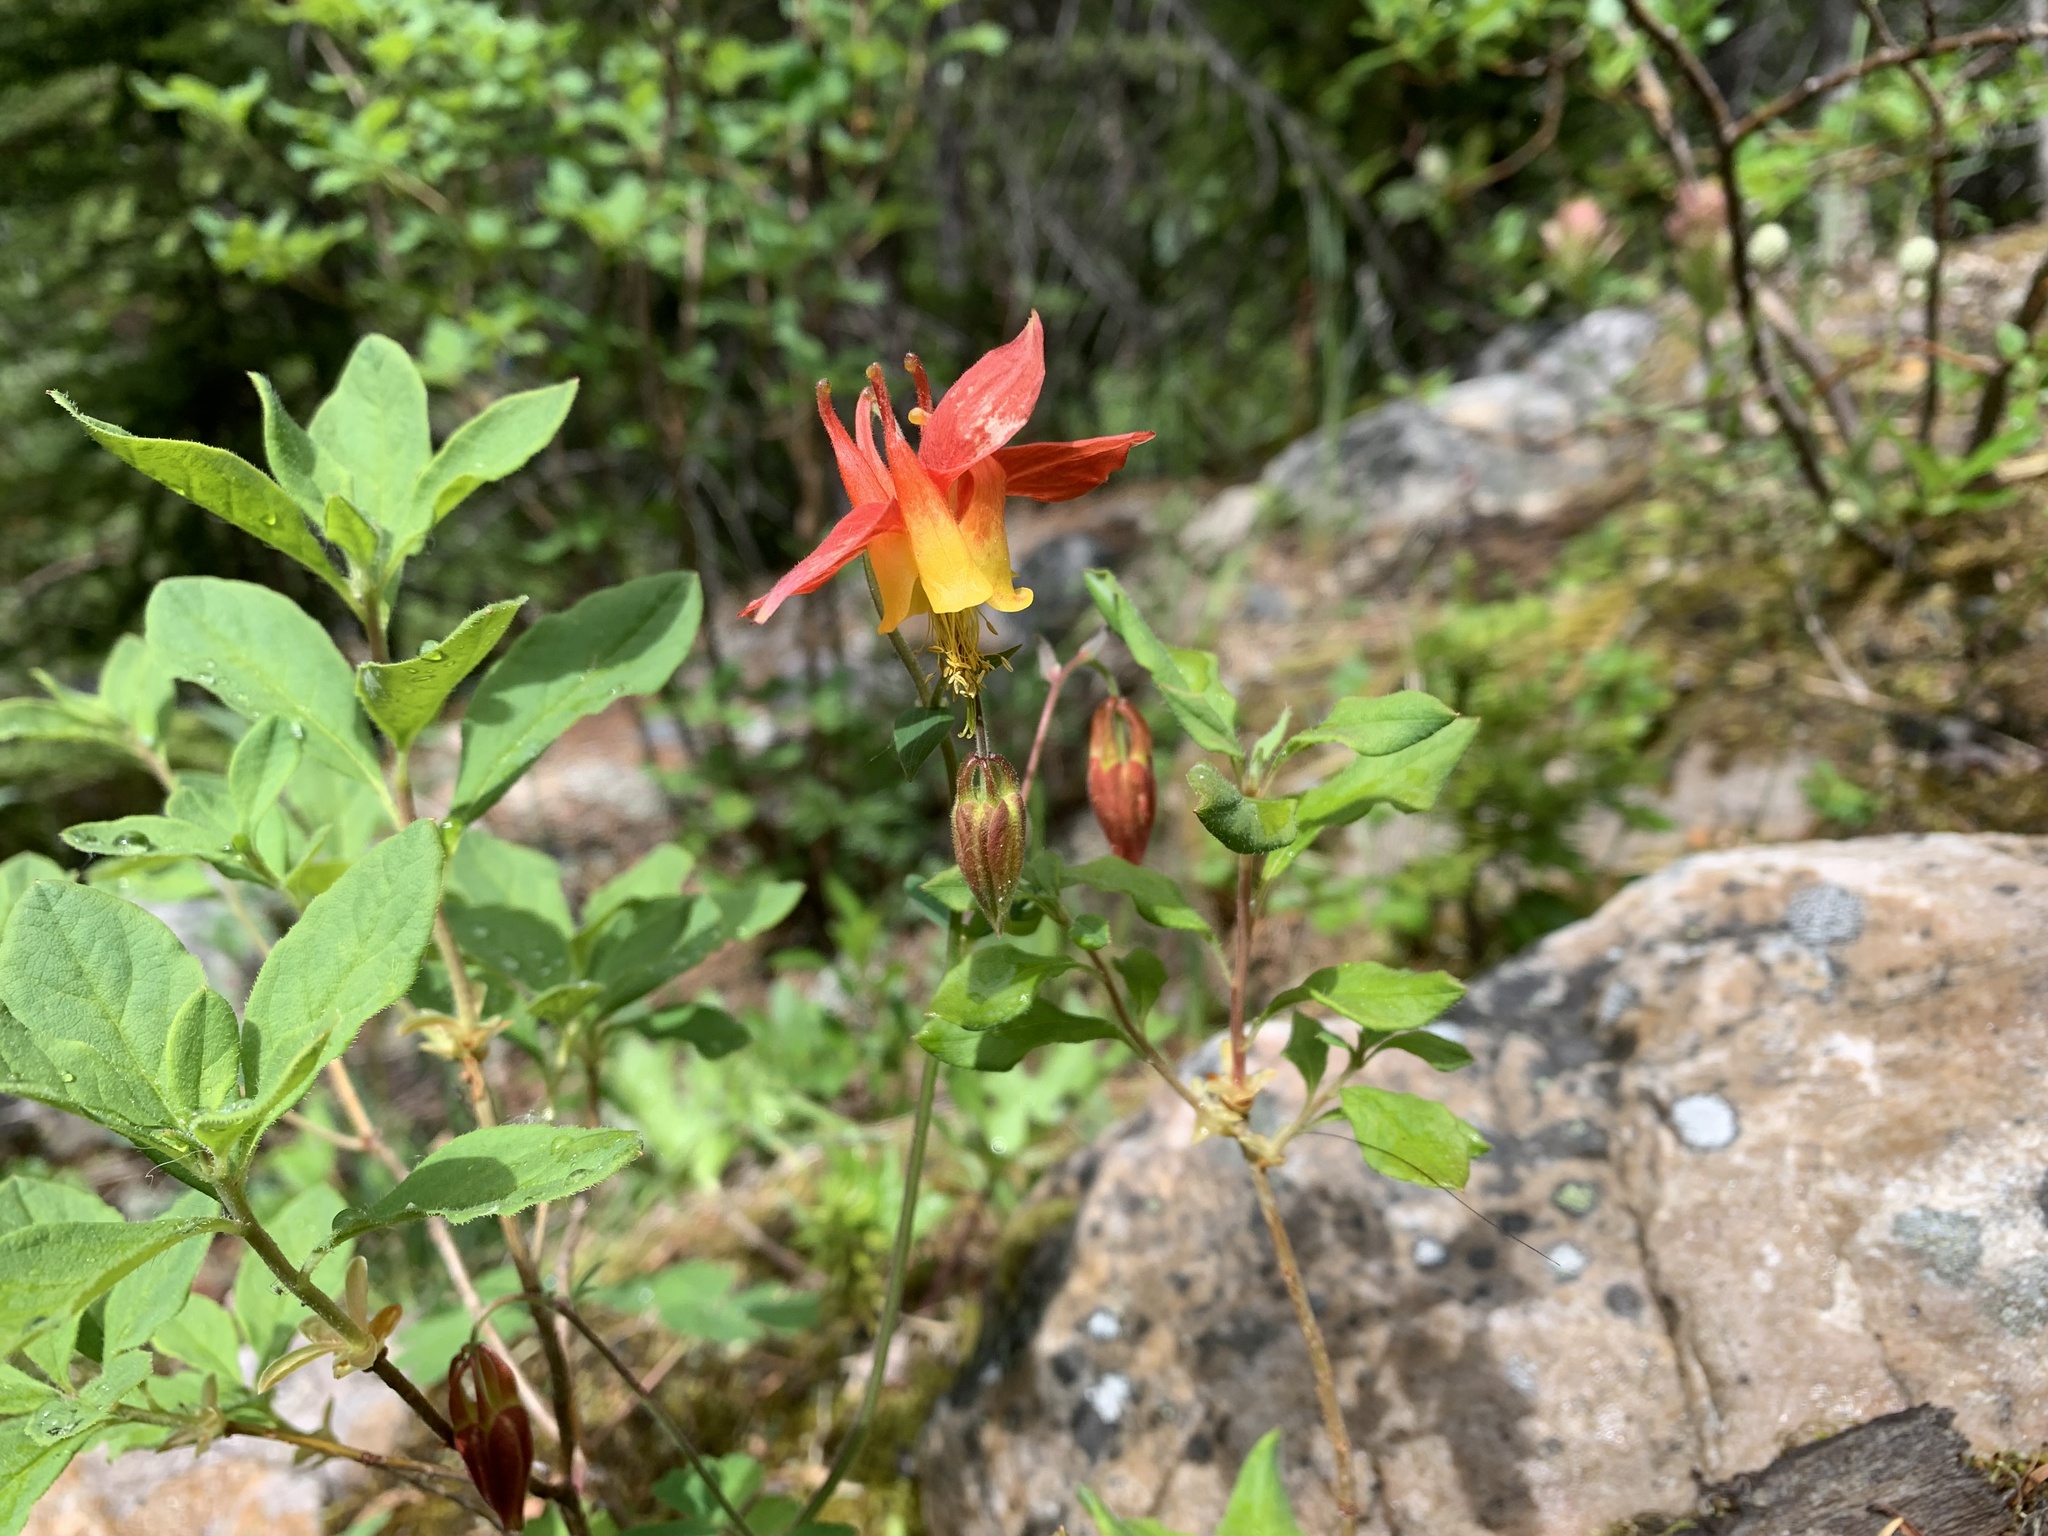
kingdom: Plantae
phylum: Tracheophyta
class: Magnoliopsida
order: Ranunculales
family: Ranunculaceae
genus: Aquilegia
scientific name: Aquilegia formosa
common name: Sitka columbine
